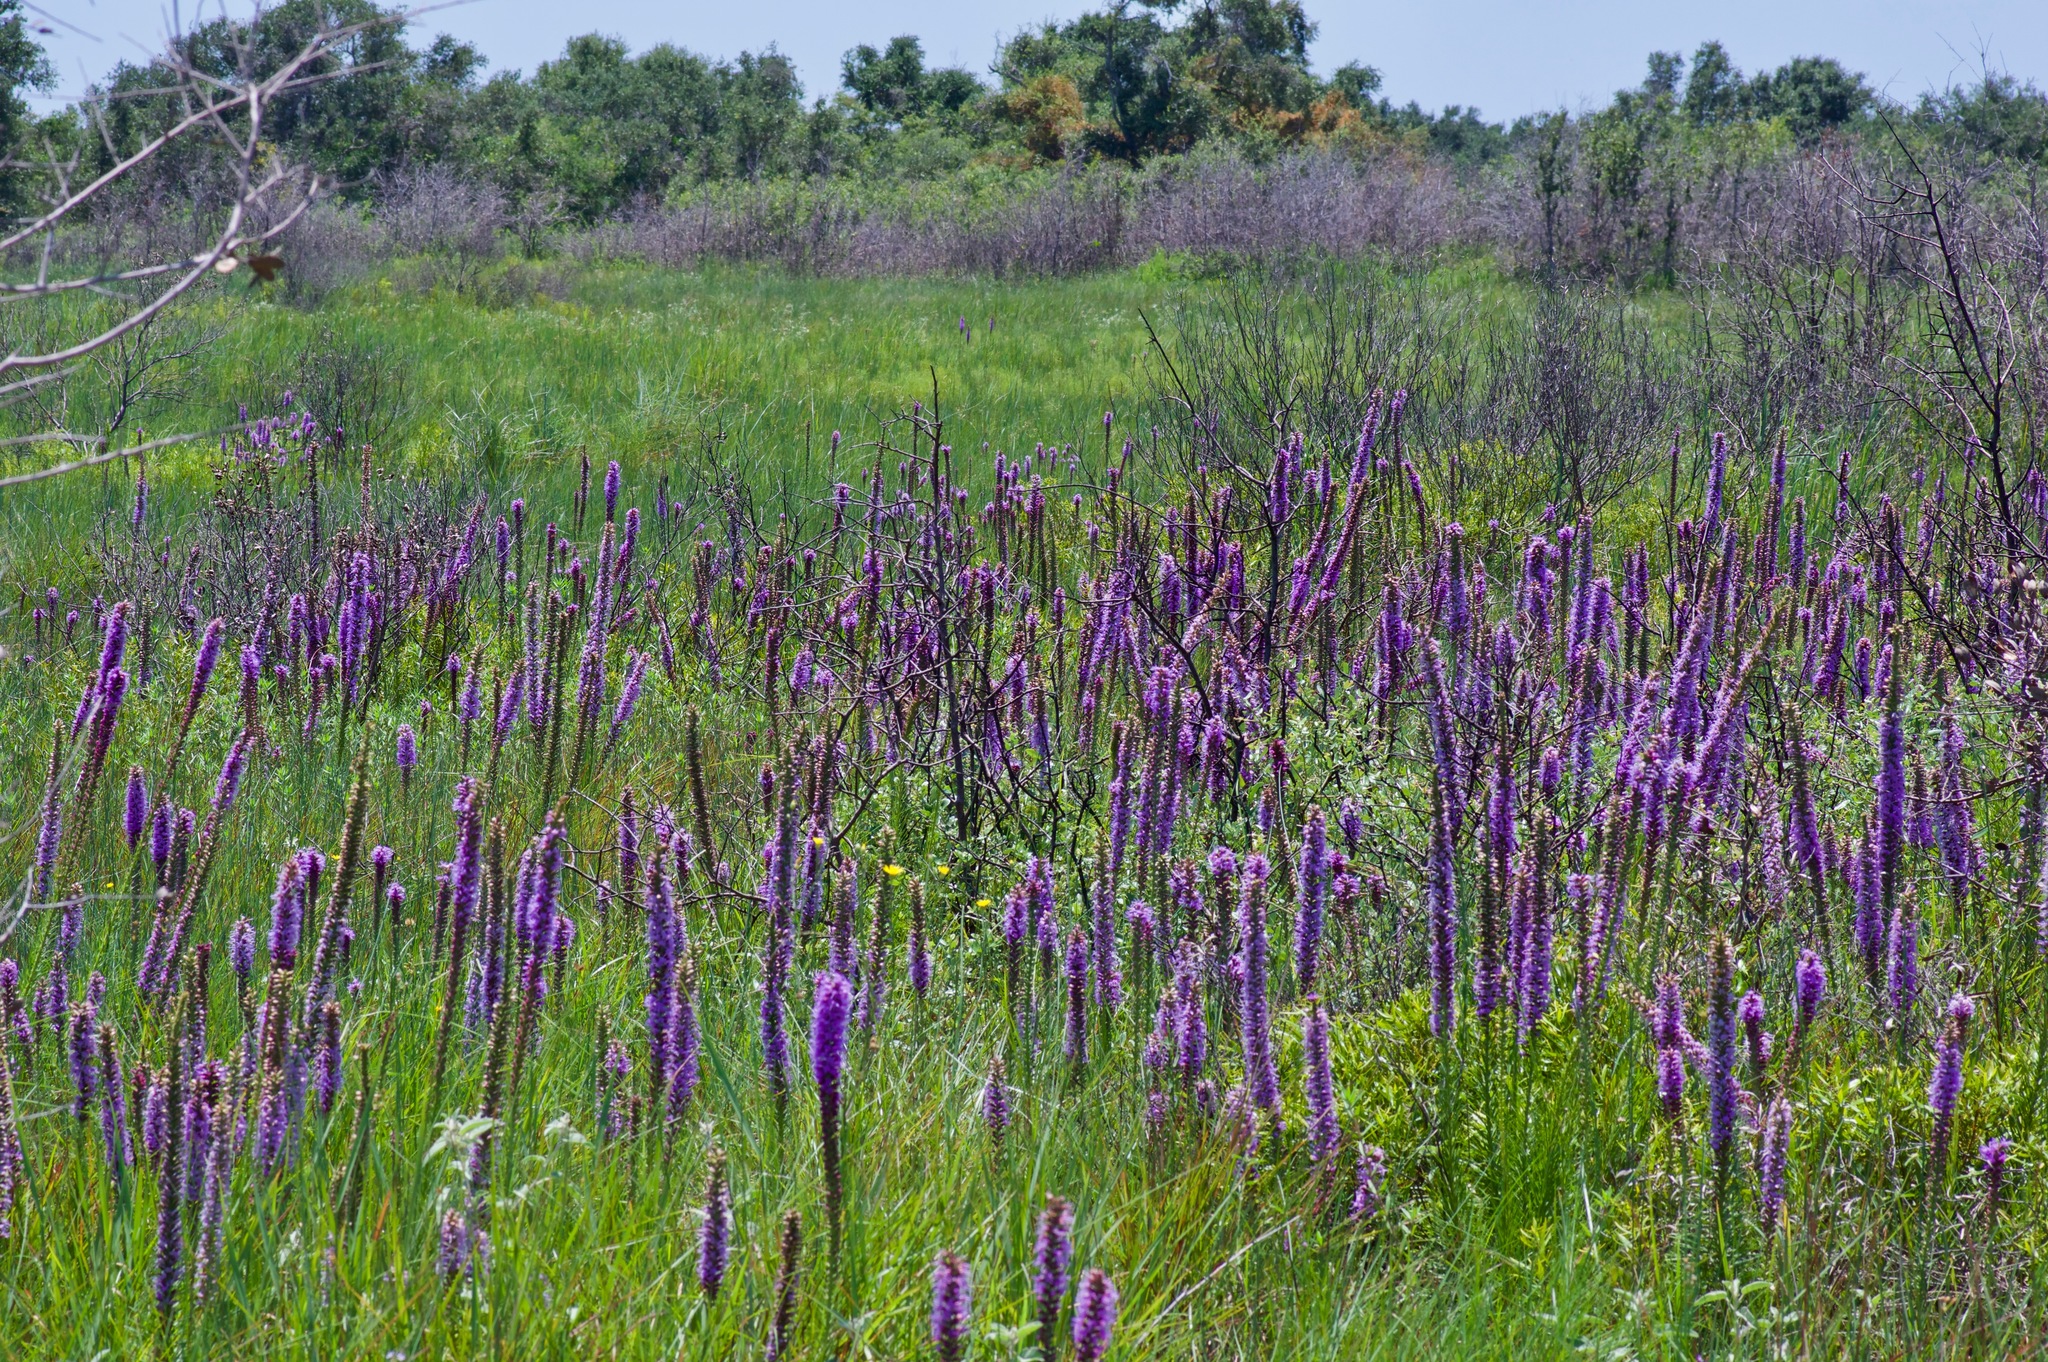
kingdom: Plantae
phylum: Tracheophyta
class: Magnoliopsida
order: Asterales
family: Asteraceae
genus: Liatris
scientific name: Liatris pycnostachya
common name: Cattail gayfeather
